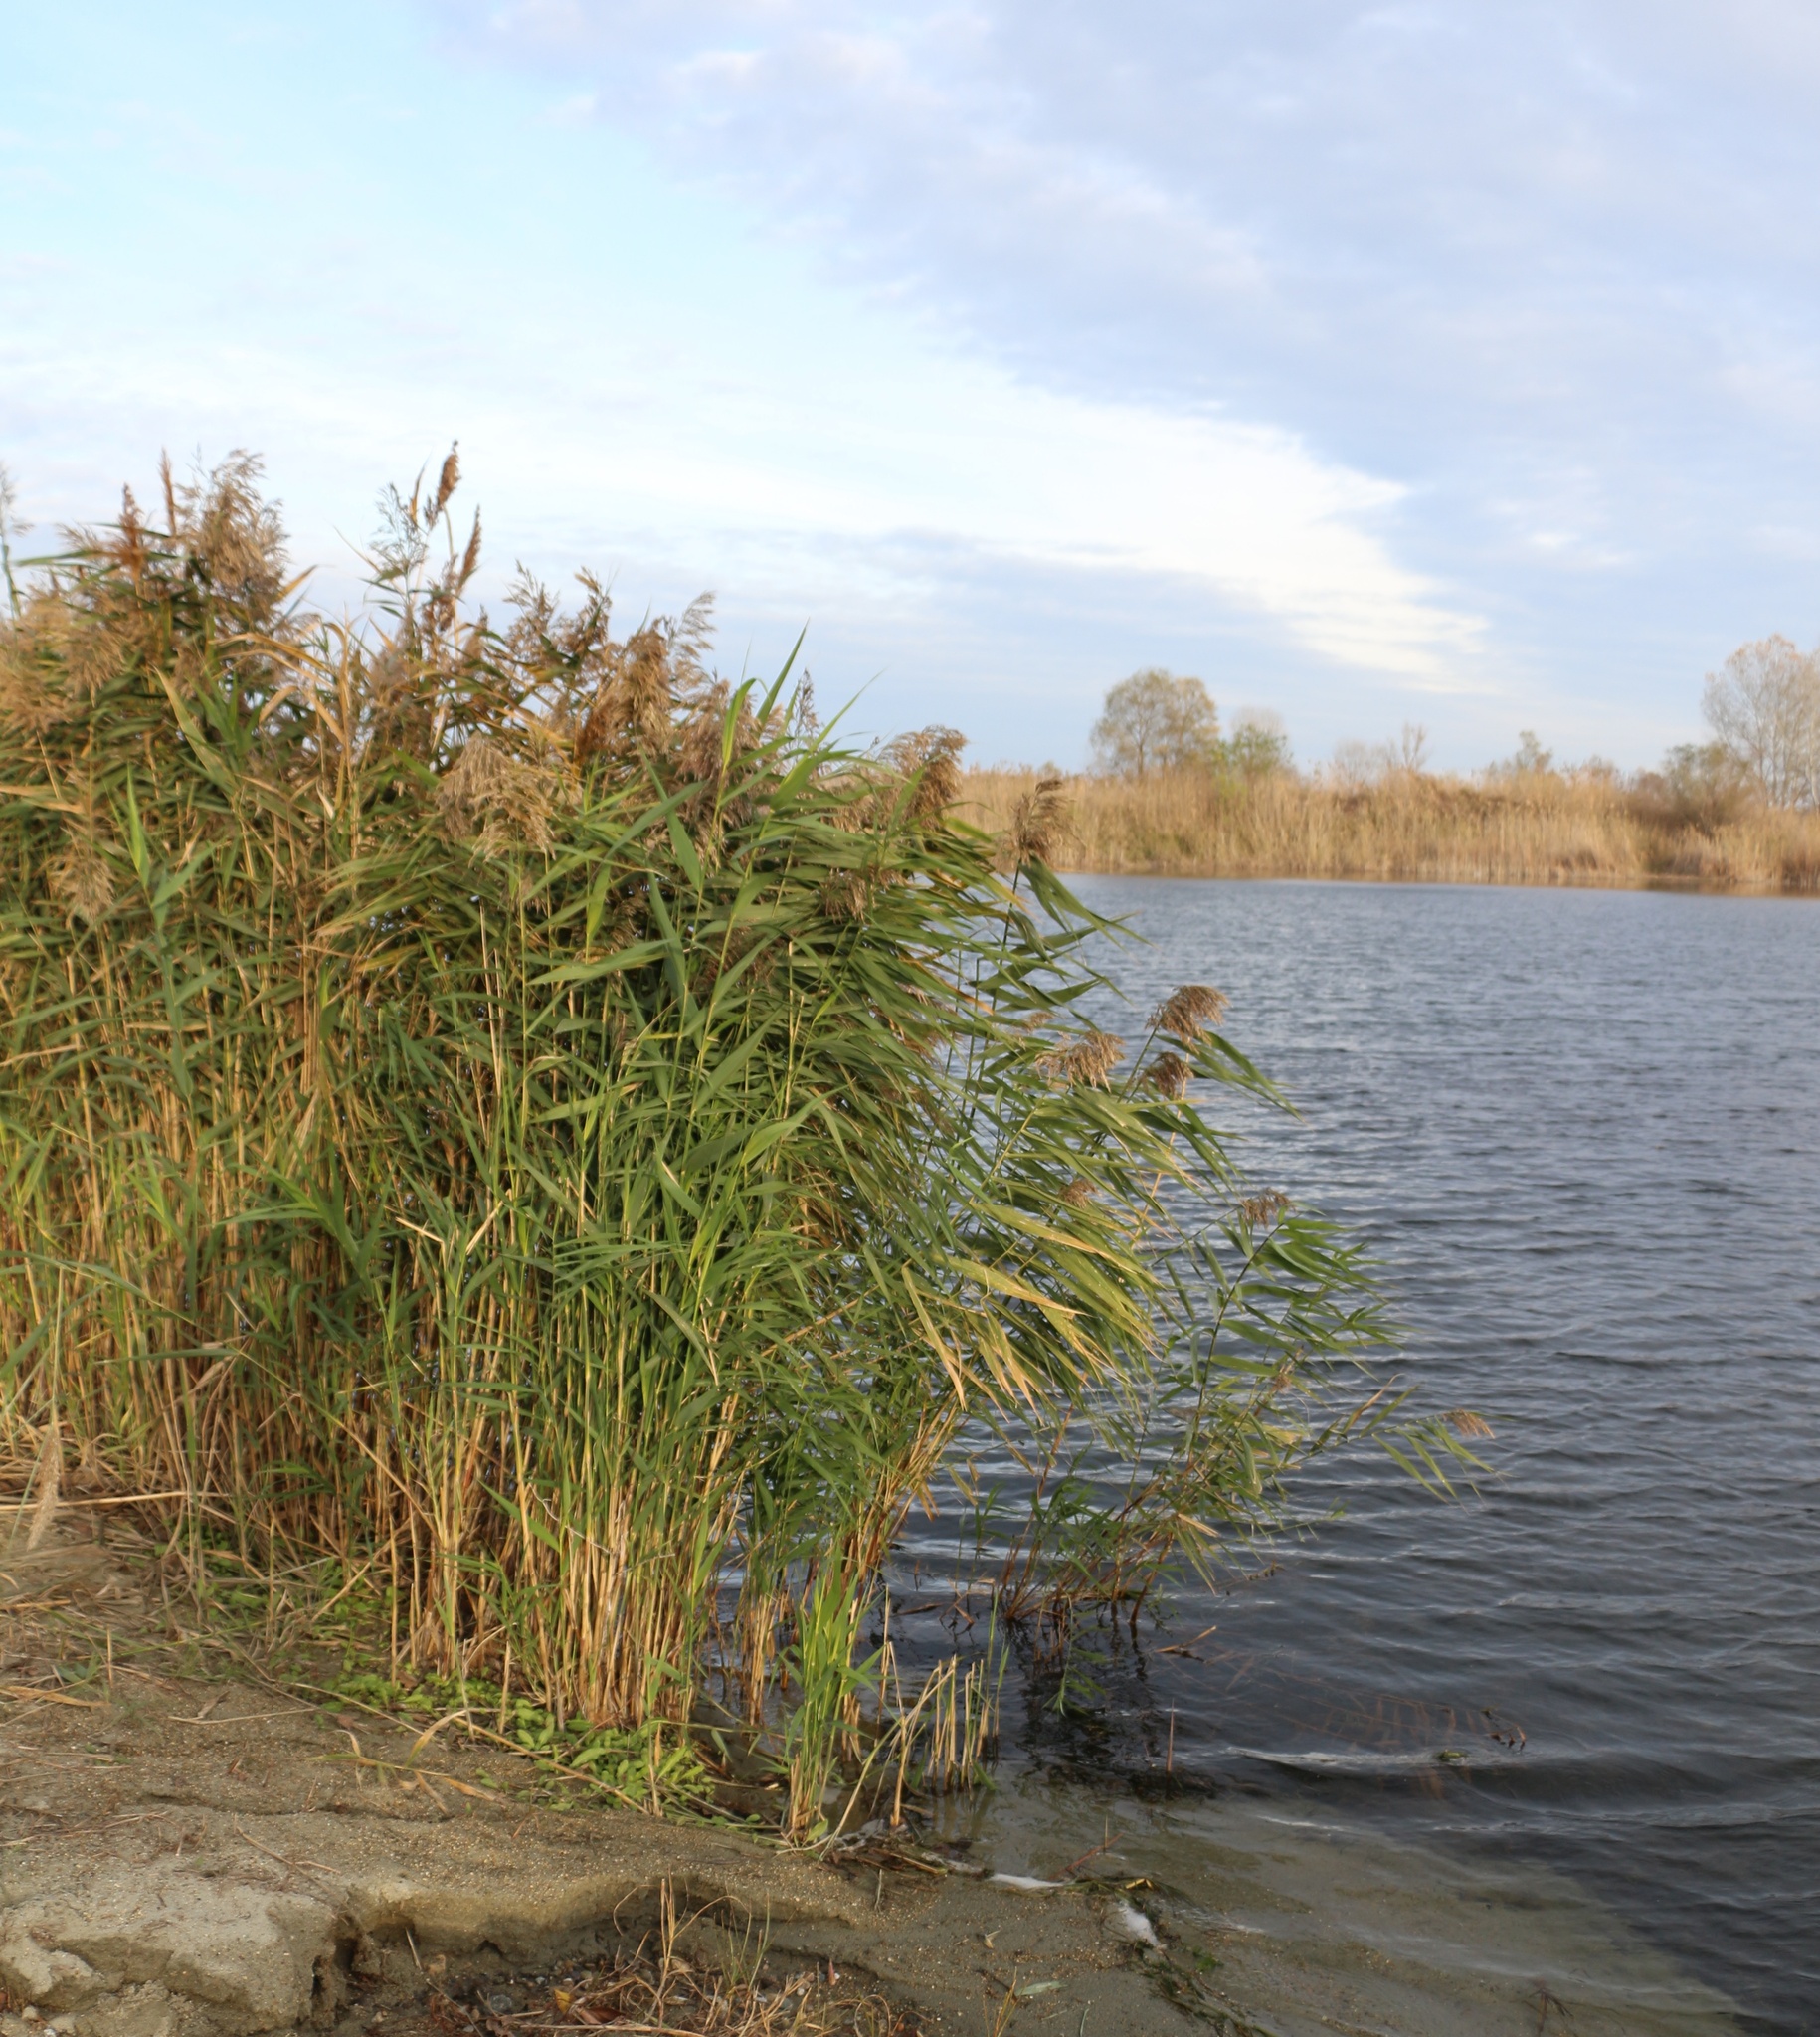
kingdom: Plantae
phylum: Tracheophyta
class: Liliopsida
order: Poales
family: Poaceae
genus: Phragmites
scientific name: Phragmites australis
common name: Common reed
